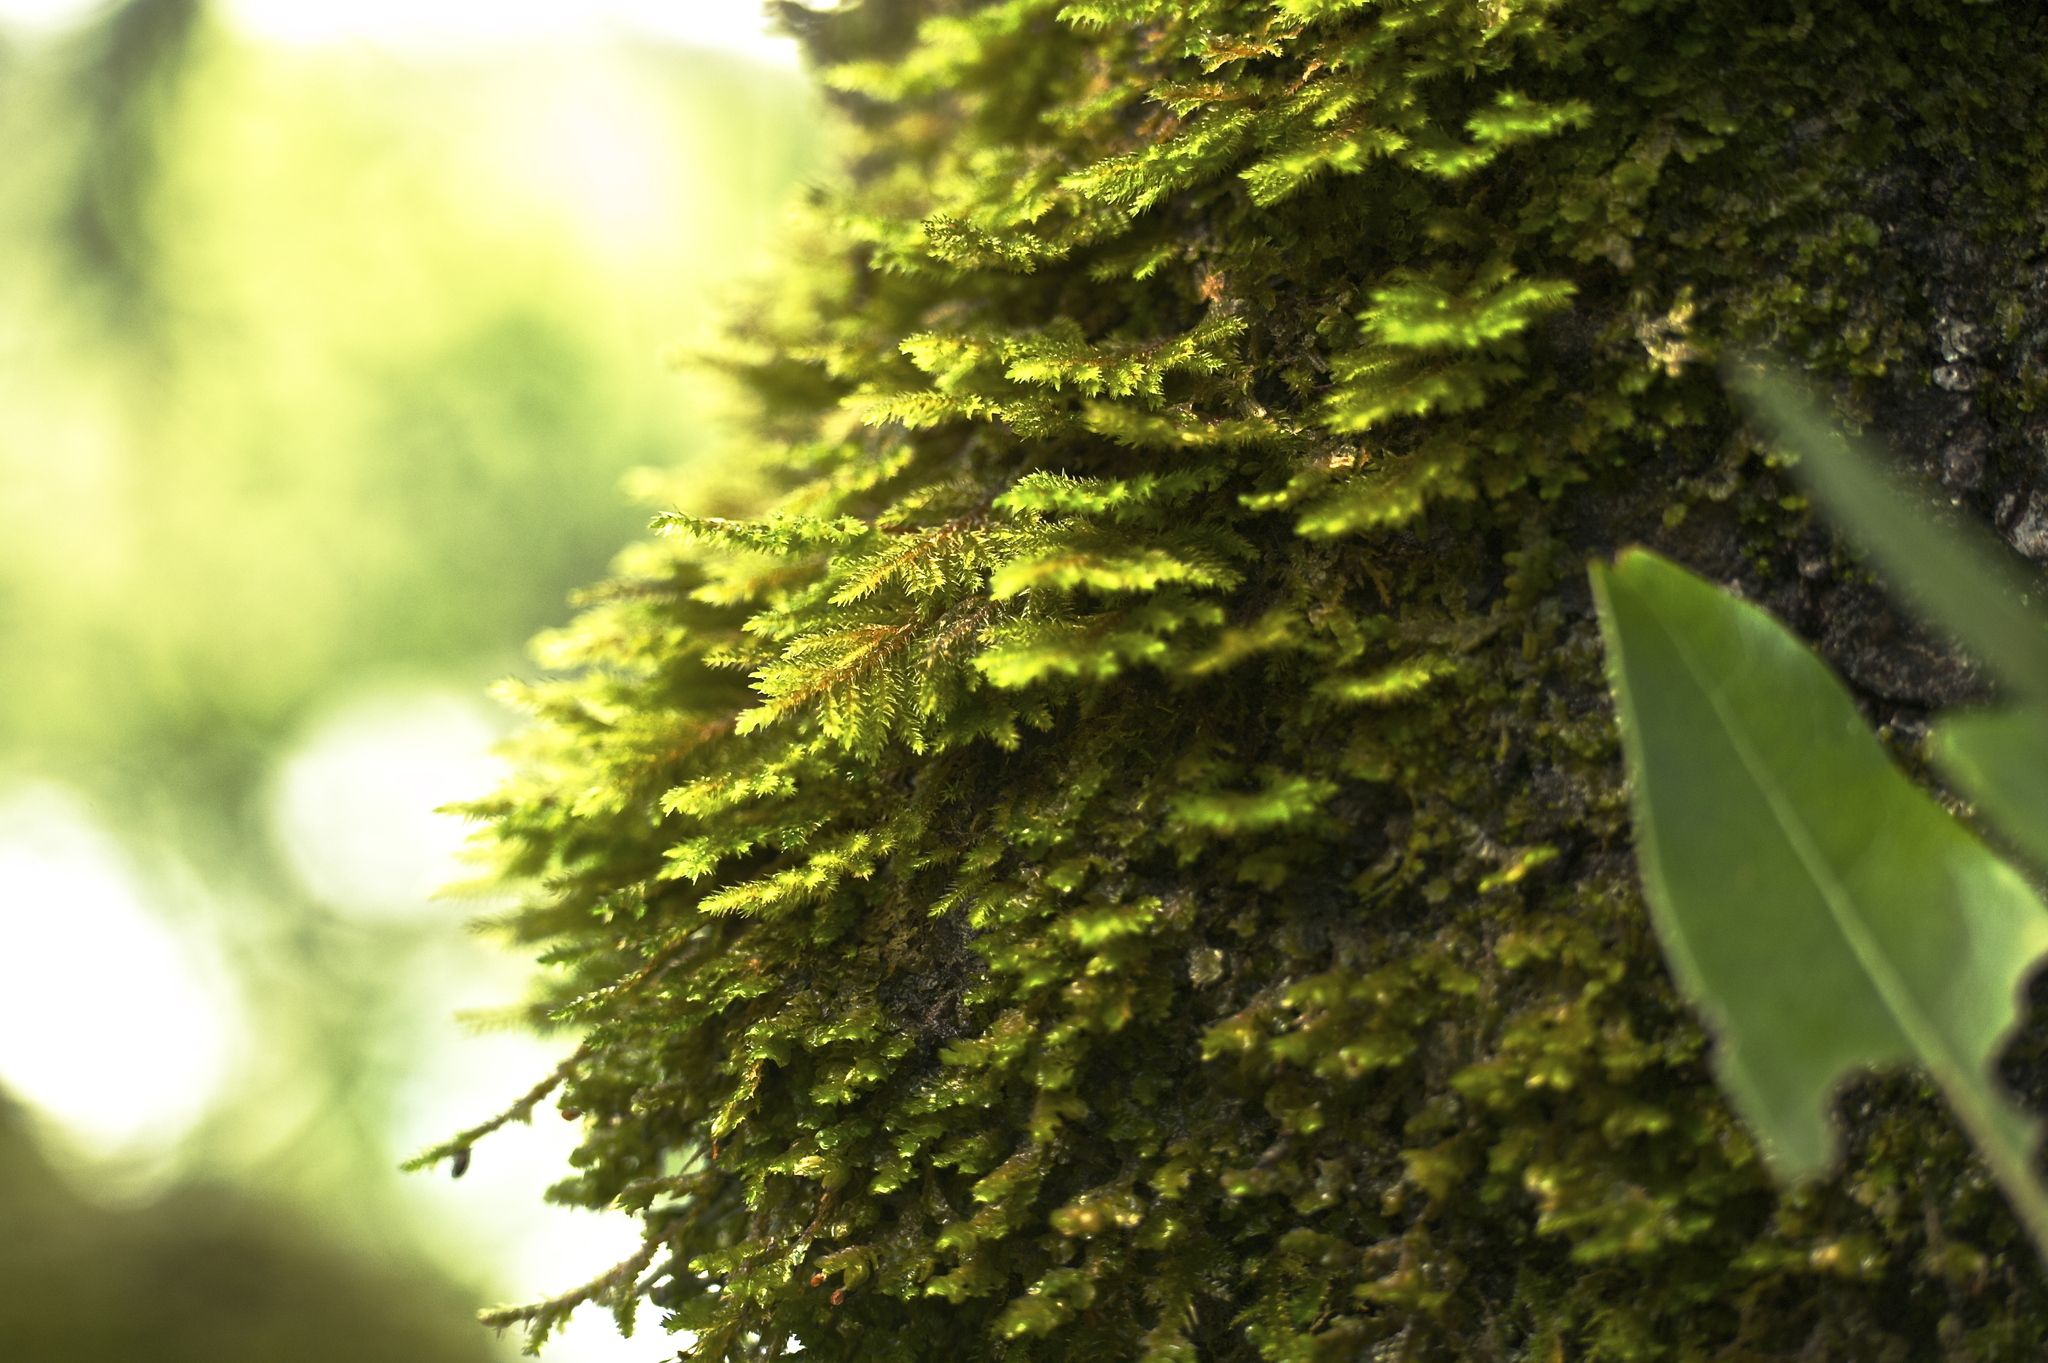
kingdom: Plantae
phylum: Bryophyta
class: Bryopsida
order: Hypnales
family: Cryphaeaceae
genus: Dendroalsia
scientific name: Dendroalsia abietina
